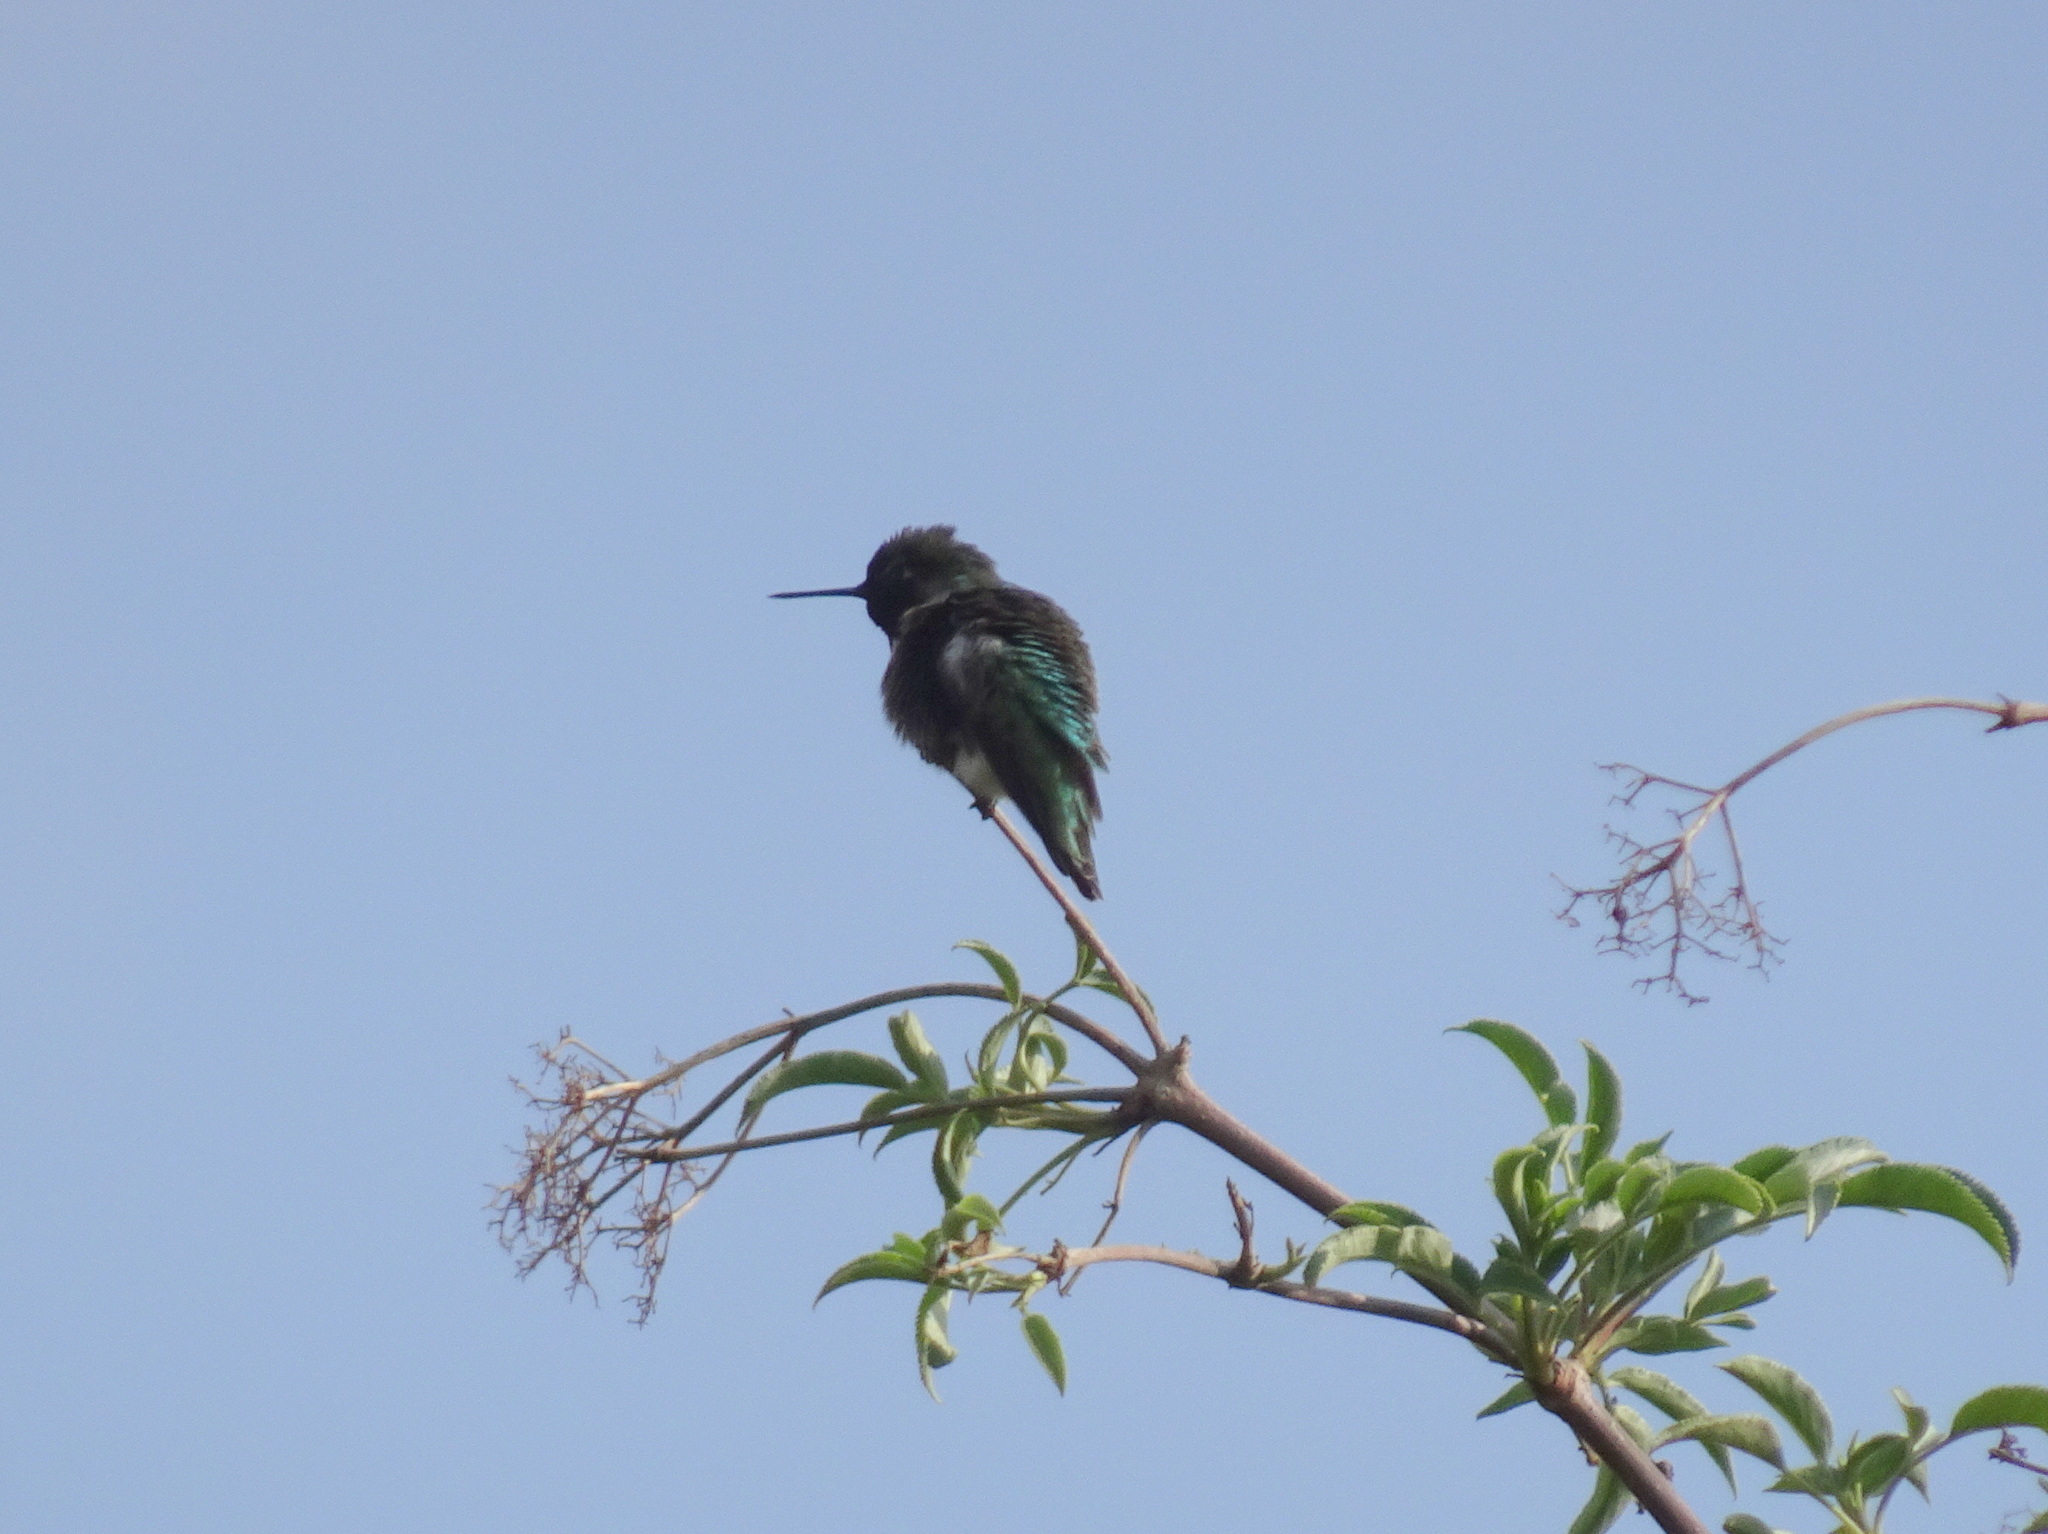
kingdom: Animalia
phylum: Chordata
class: Aves
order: Apodiformes
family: Trochilidae
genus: Calypte
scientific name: Calypte anna
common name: Anna's hummingbird
